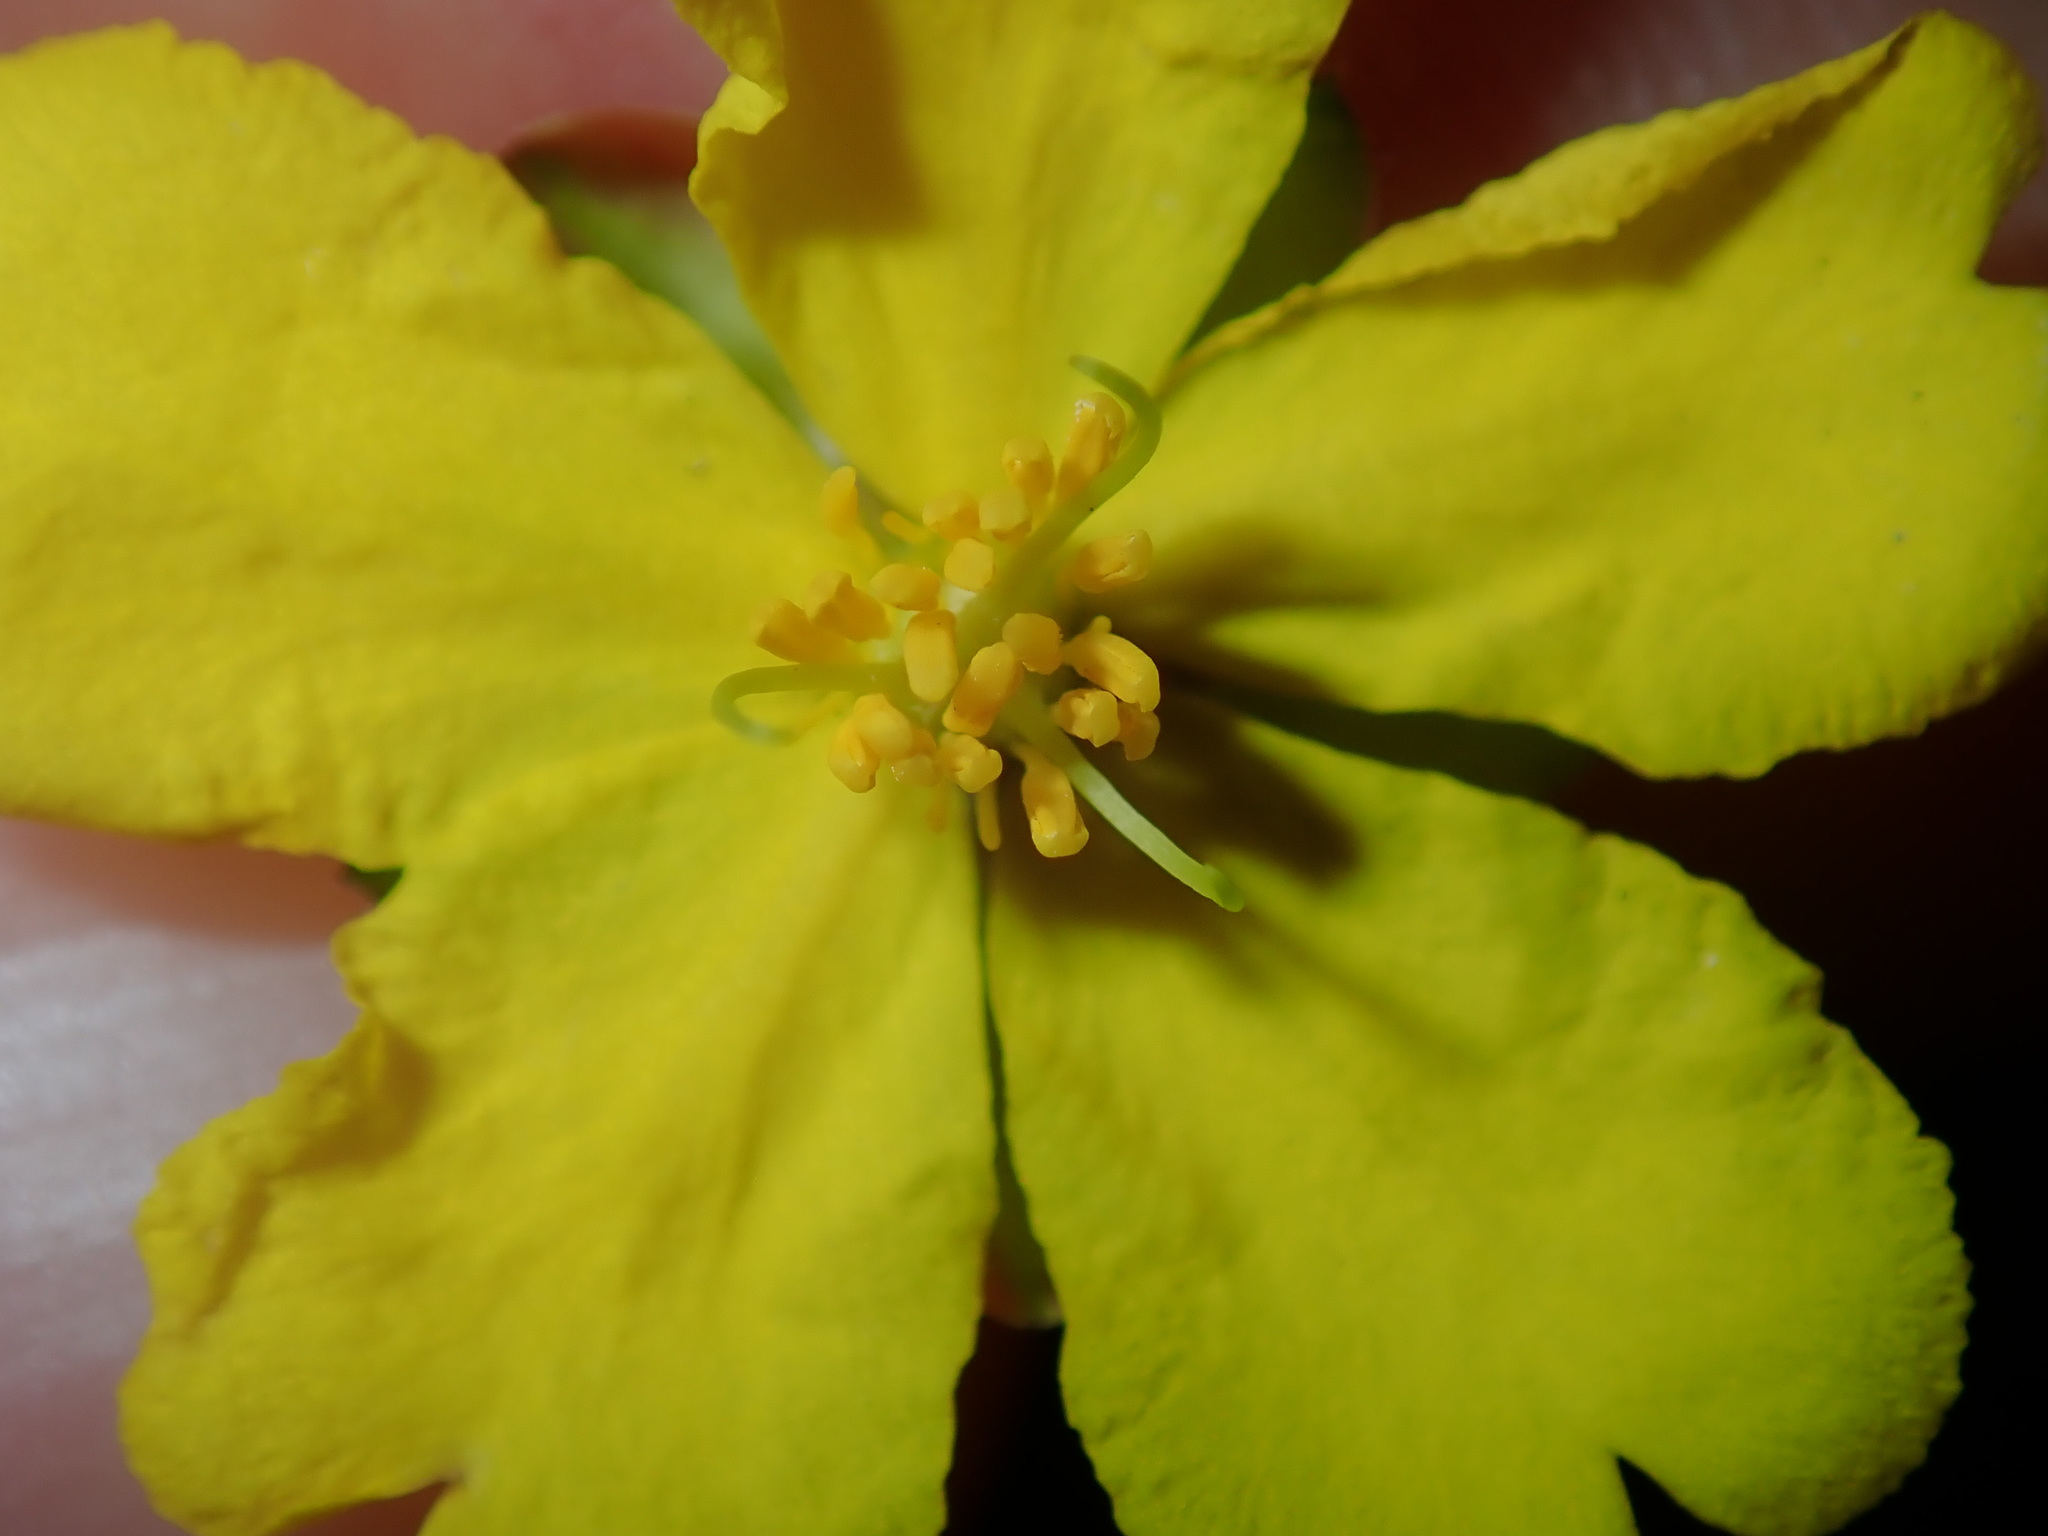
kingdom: Plantae
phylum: Tracheophyta
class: Magnoliopsida
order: Dilleniales
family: Dilleniaceae
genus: Hibbertia
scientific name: Hibbertia pedunculata
